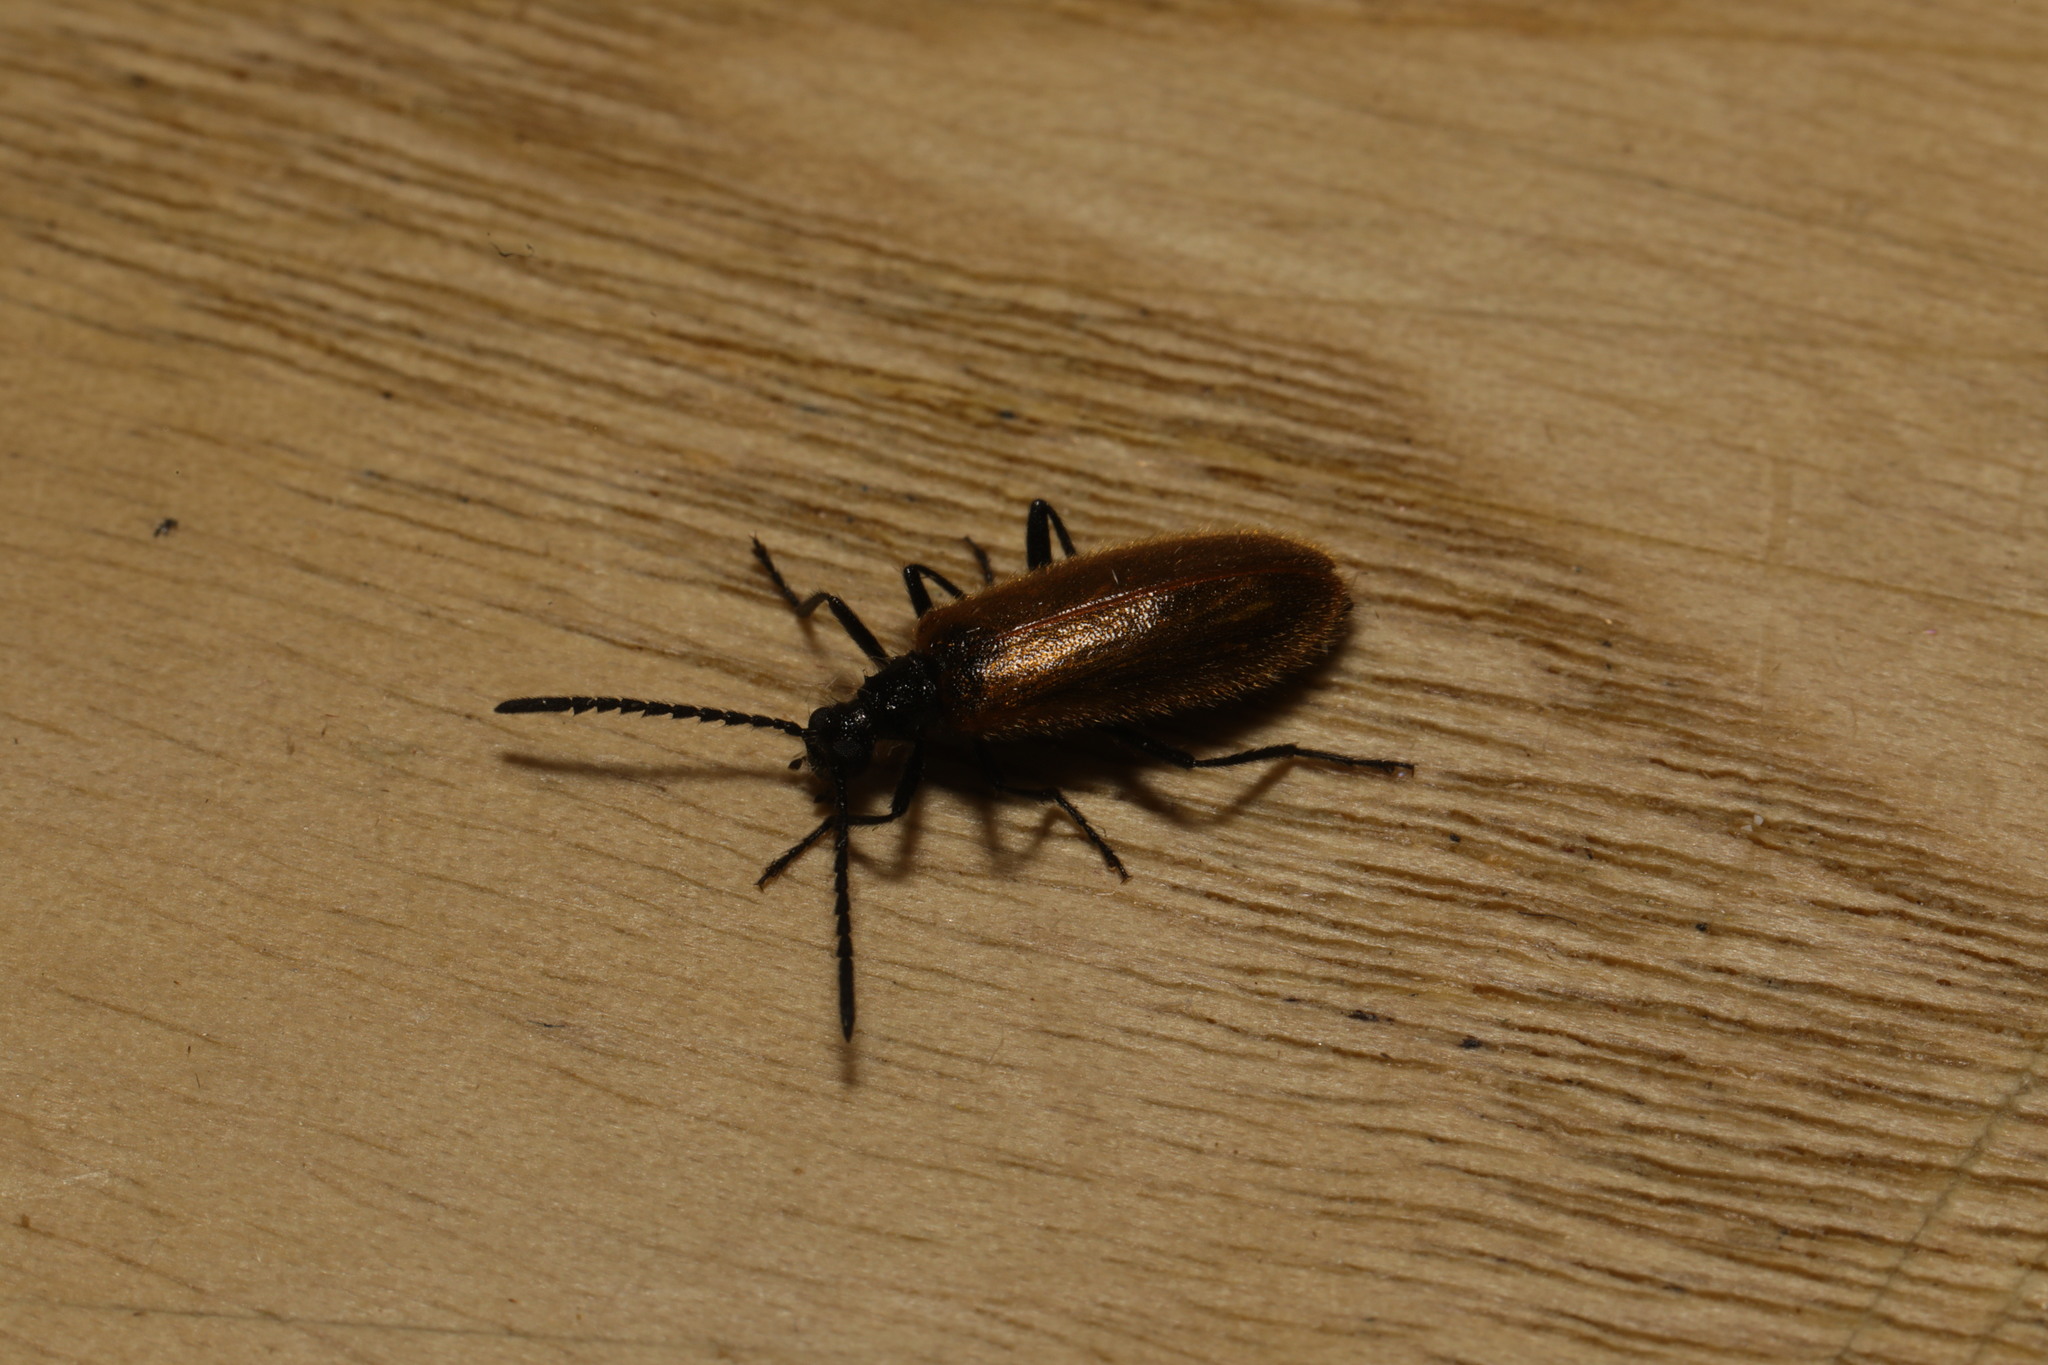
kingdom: Animalia
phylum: Arthropoda
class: Insecta
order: Coleoptera
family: Tenebrionidae
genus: Lagria
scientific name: Lagria hirta
